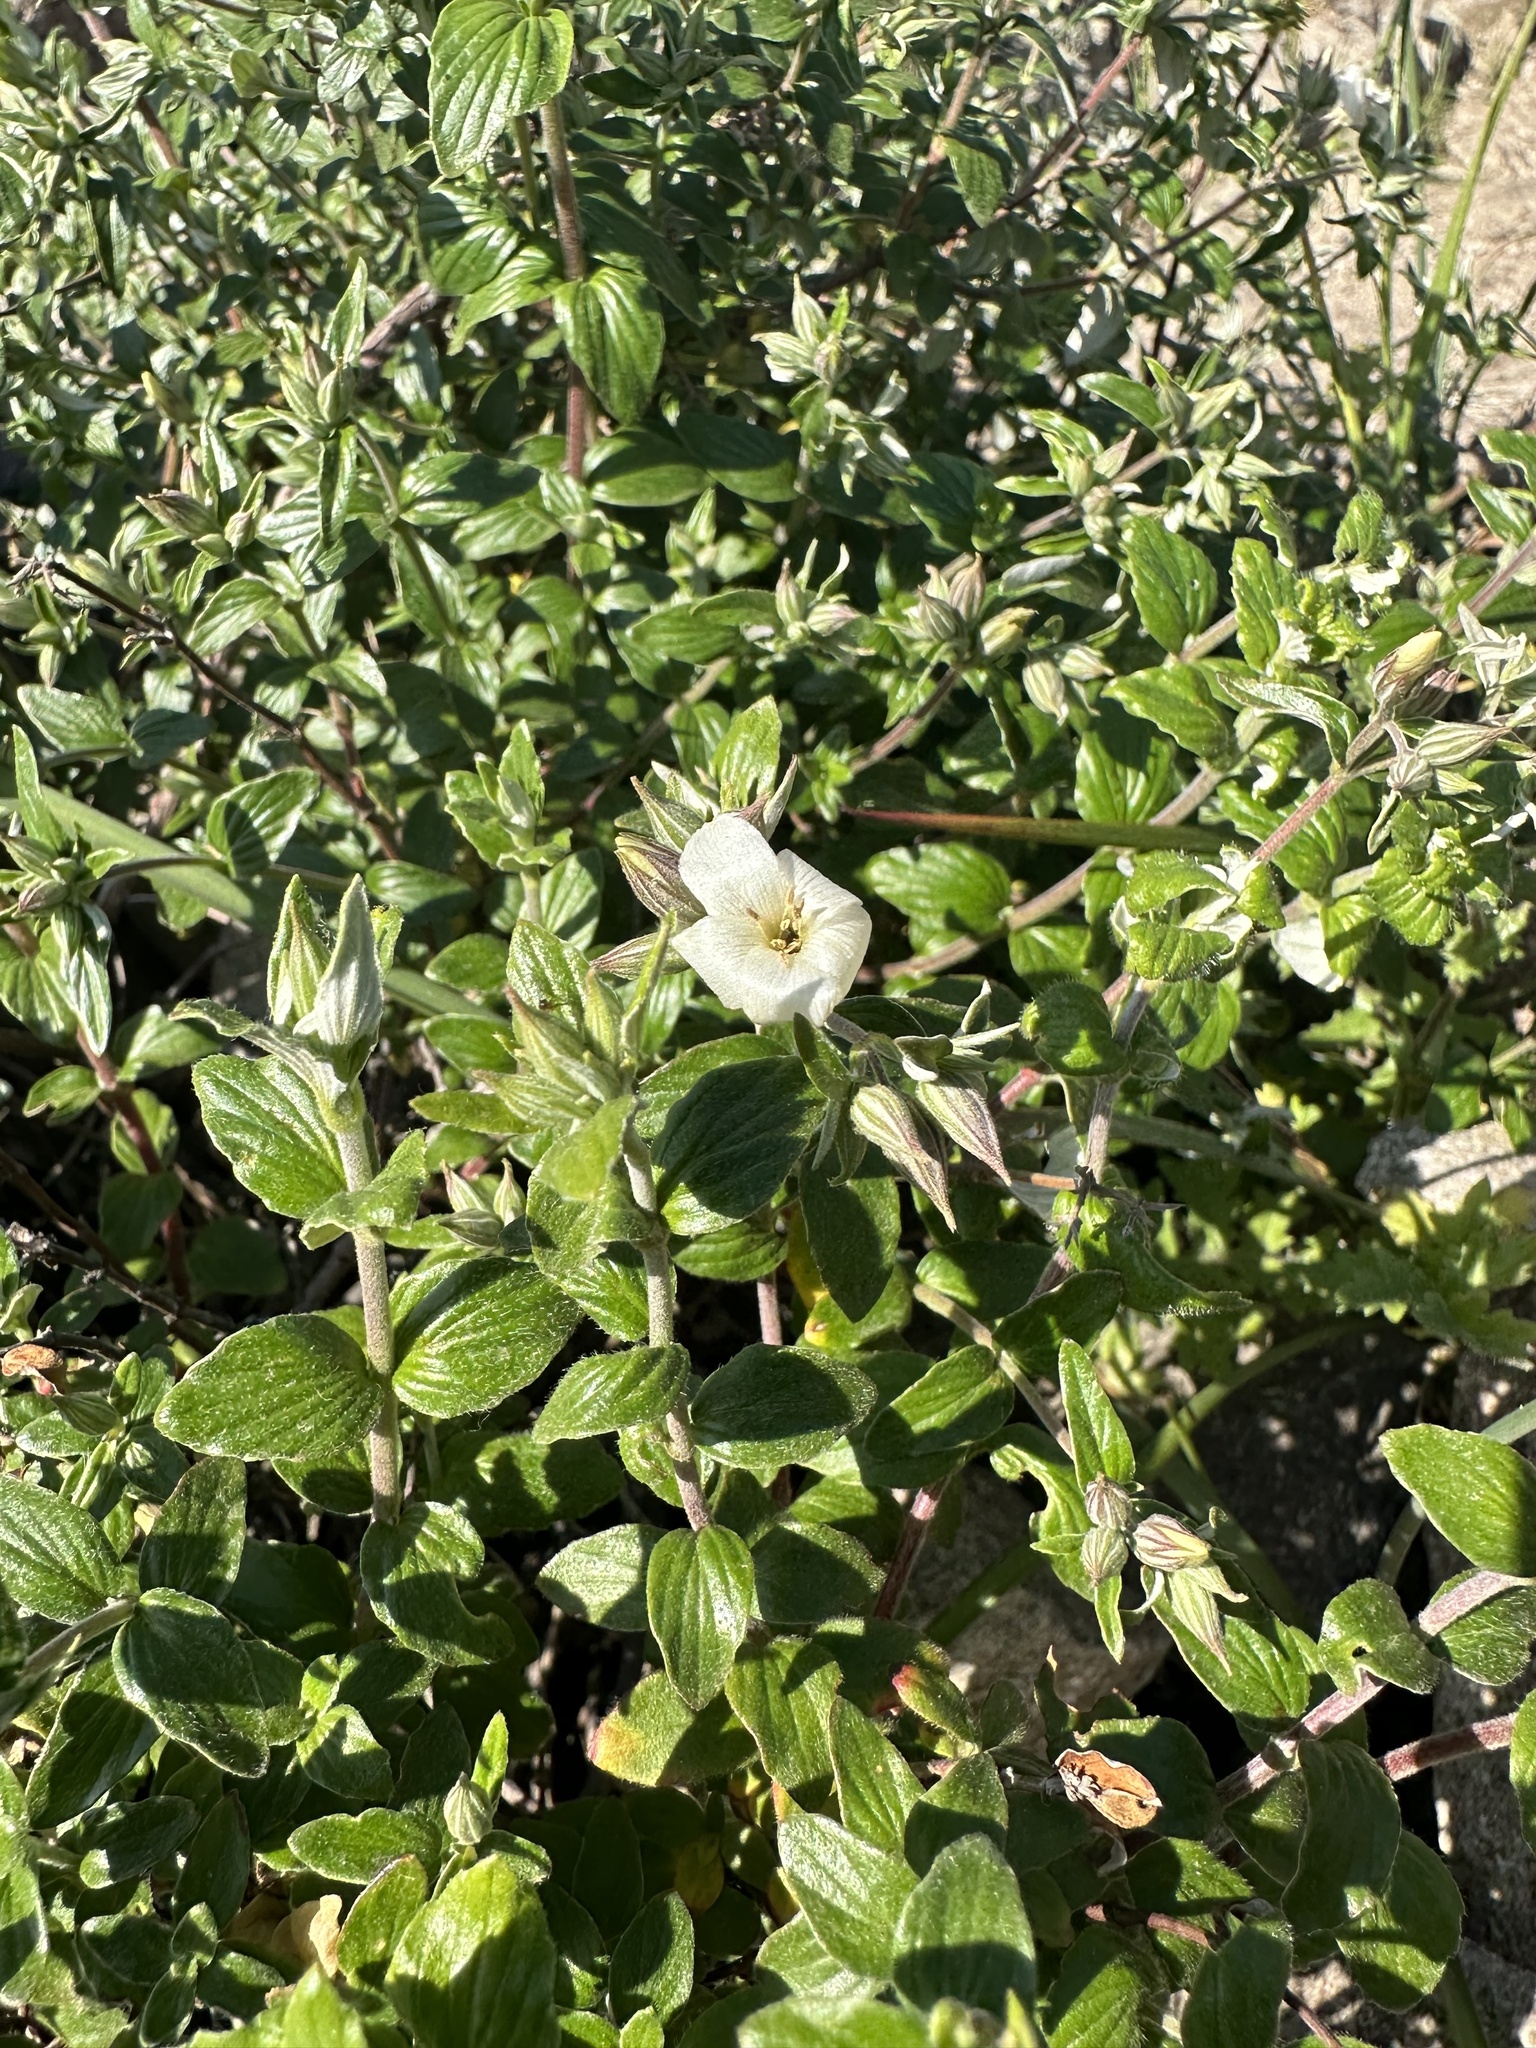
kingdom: Plantae
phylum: Tracheophyta
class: Magnoliopsida
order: Geraniales
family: Vivianiaceae
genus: Viviania
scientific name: Viviania marifolia
